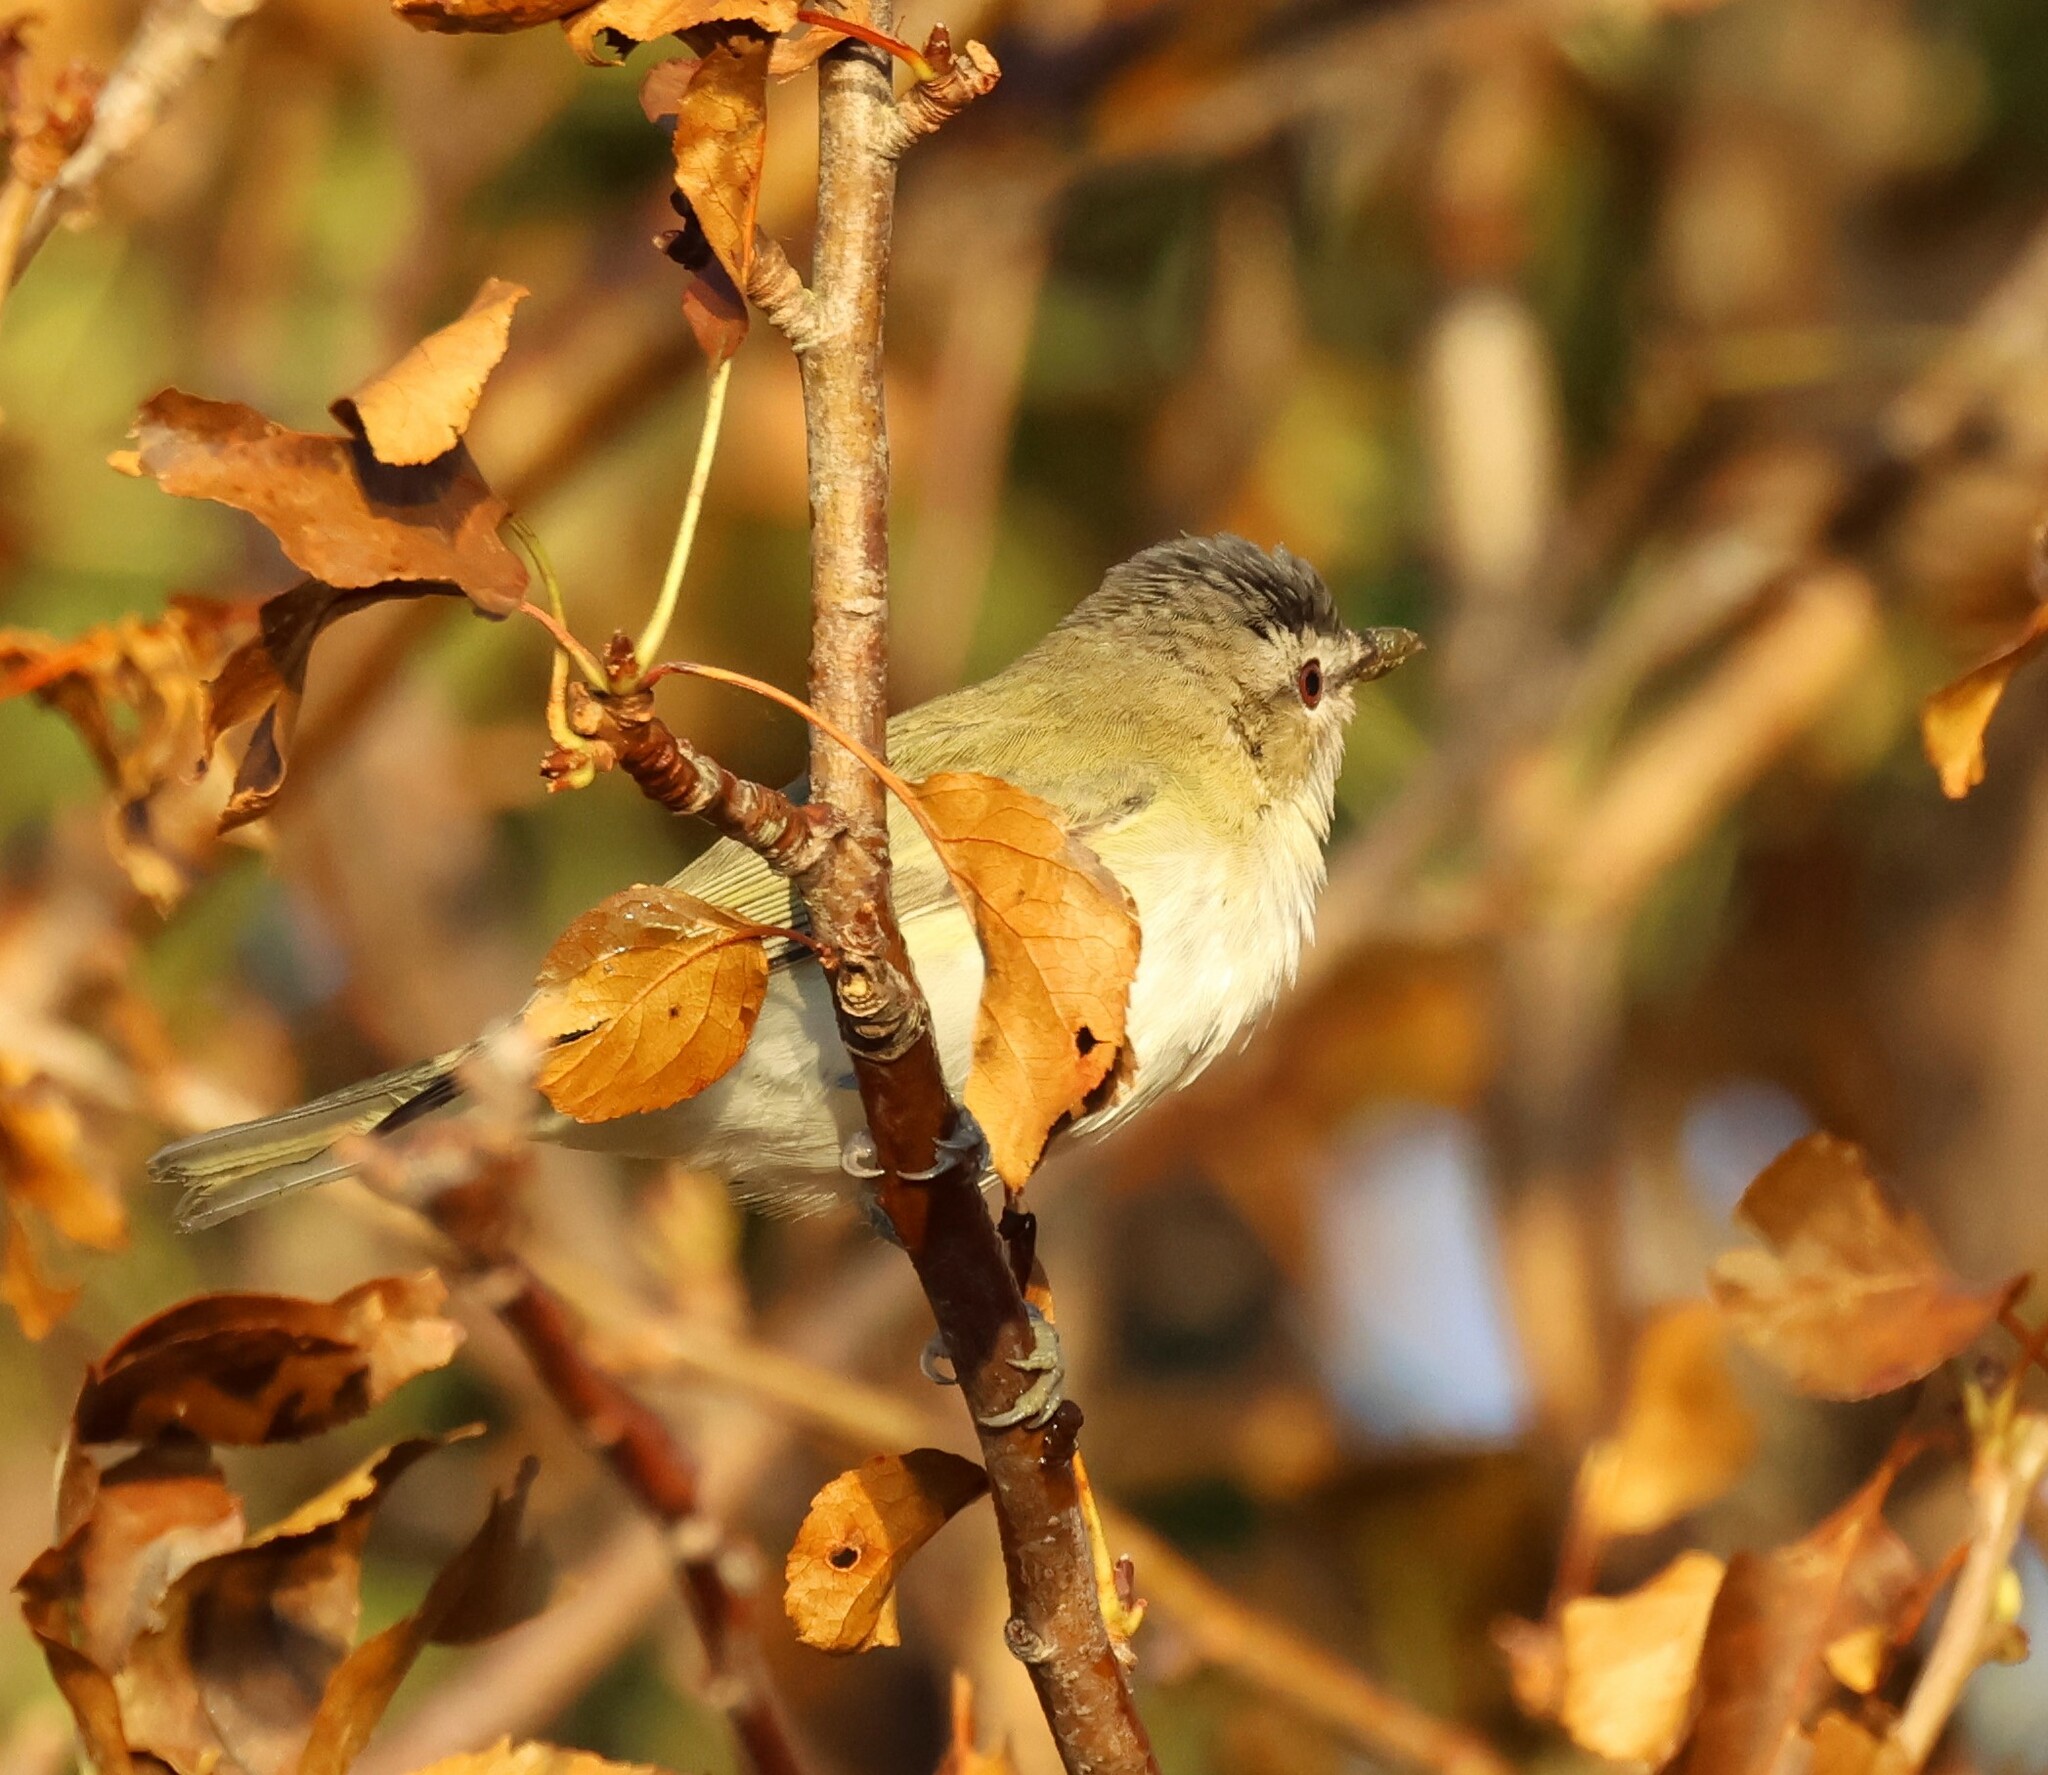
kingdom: Animalia
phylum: Chordata
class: Aves
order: Passeriformes
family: Vireonidae
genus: Vireo
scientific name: Vireo olivaceus
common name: Red-eyed vireo
